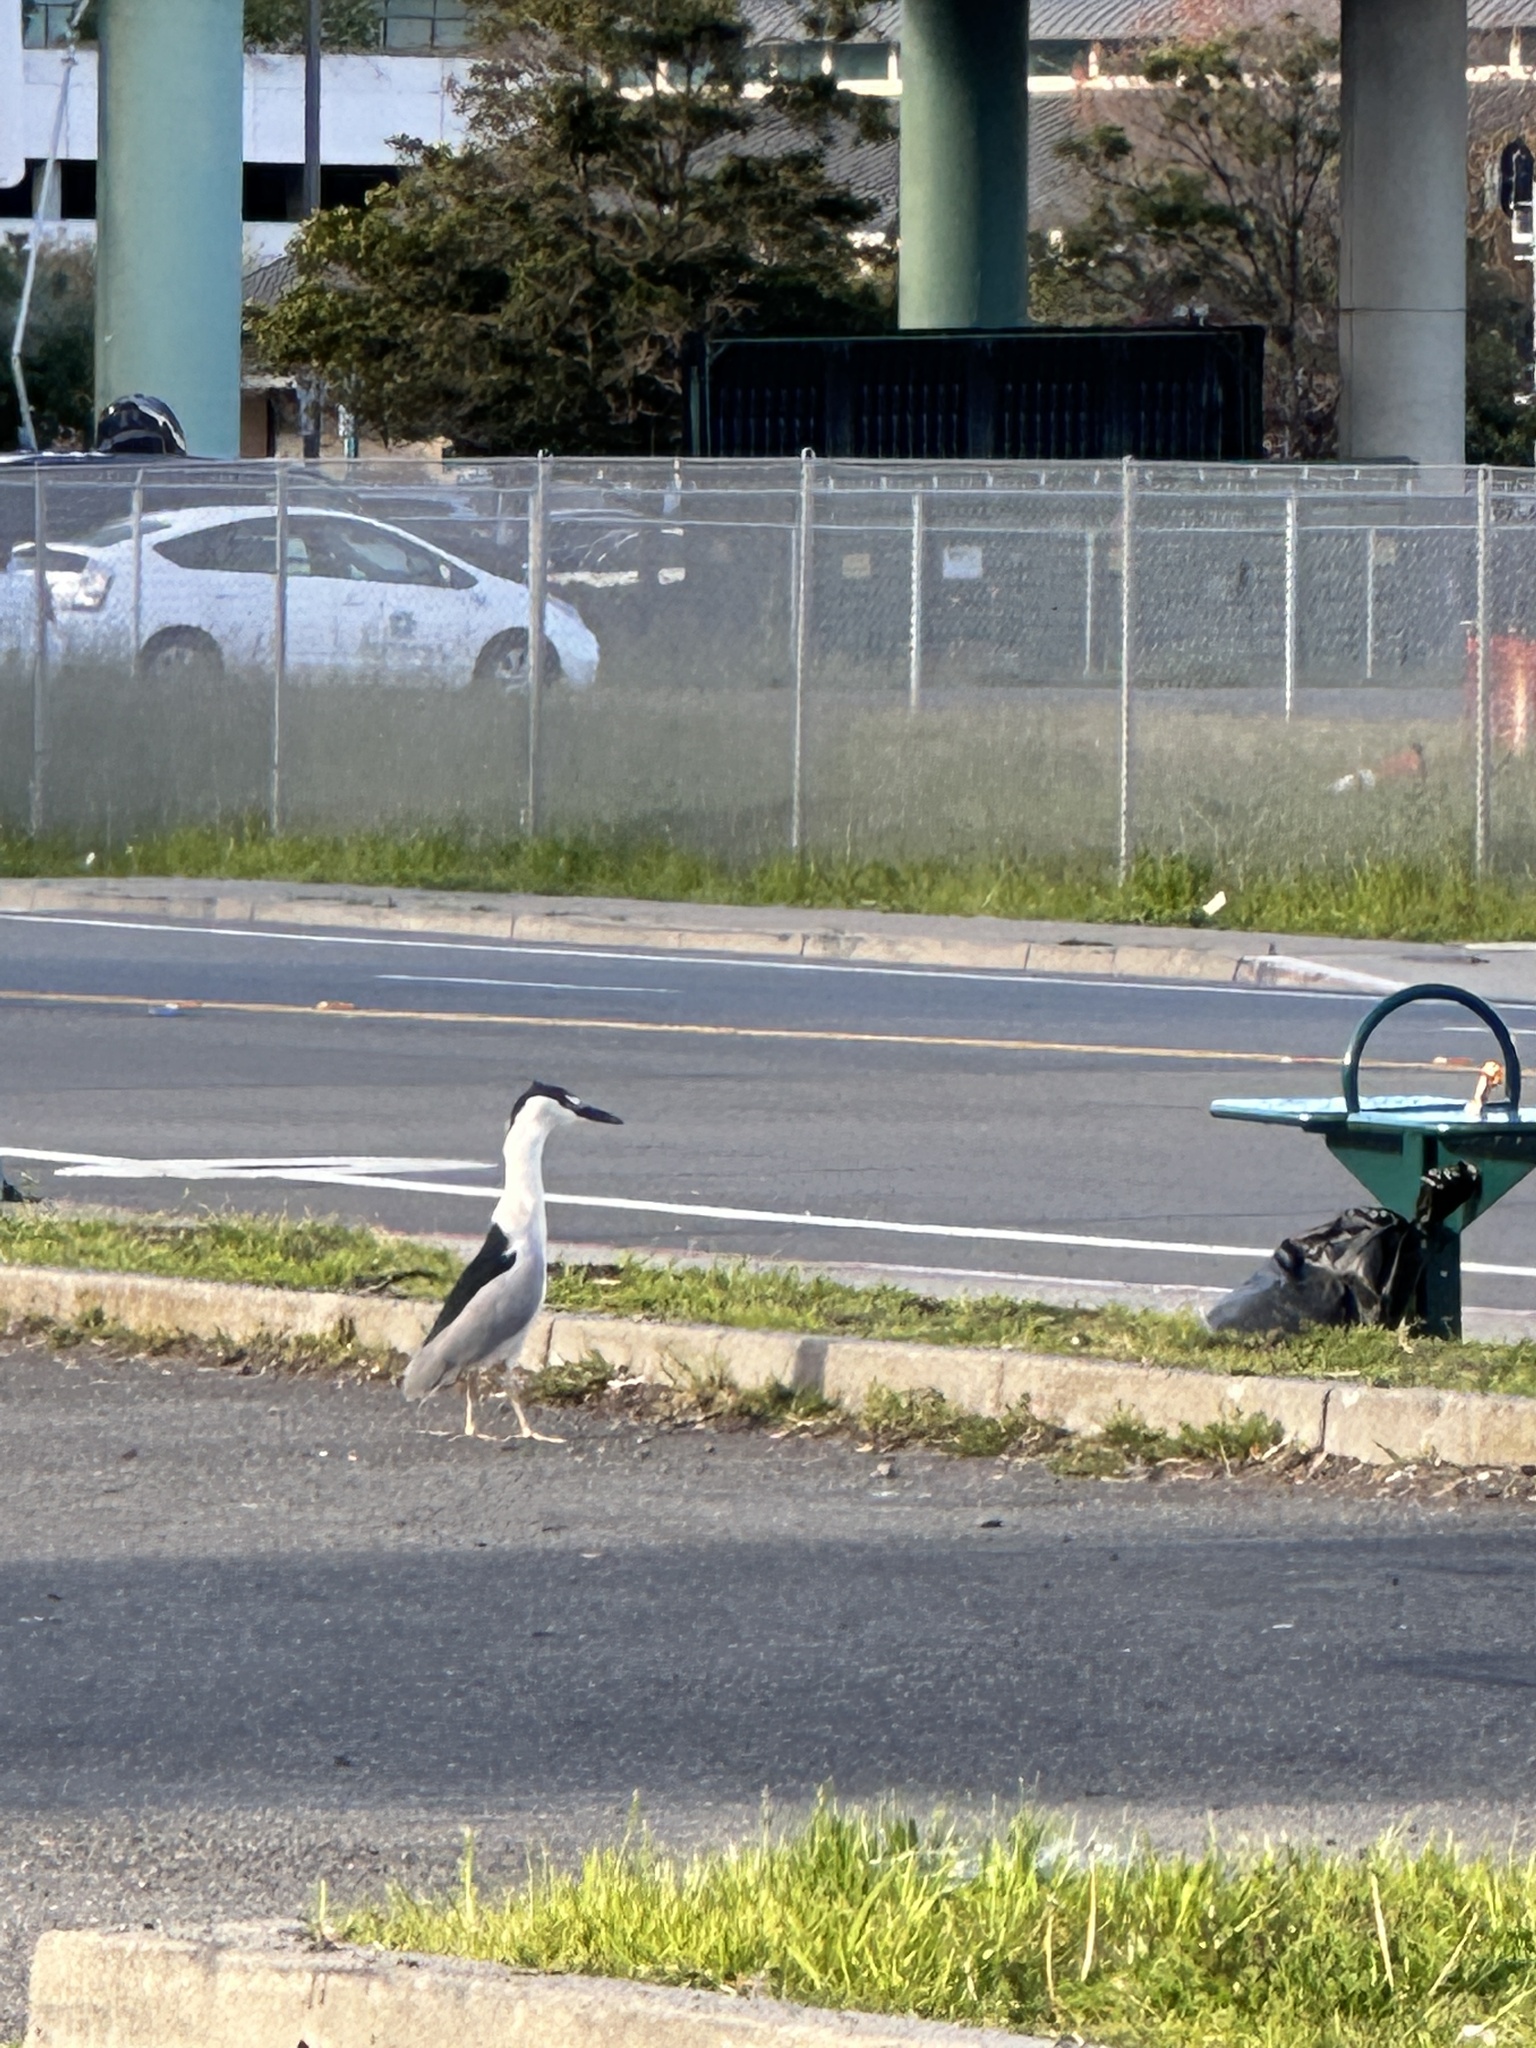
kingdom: Animalia
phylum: Chordata
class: Aves
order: Pelecaniformes
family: Ardeidae
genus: Nycticorax
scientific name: Nycticorax nycticorax
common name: Black-crowned night heron
